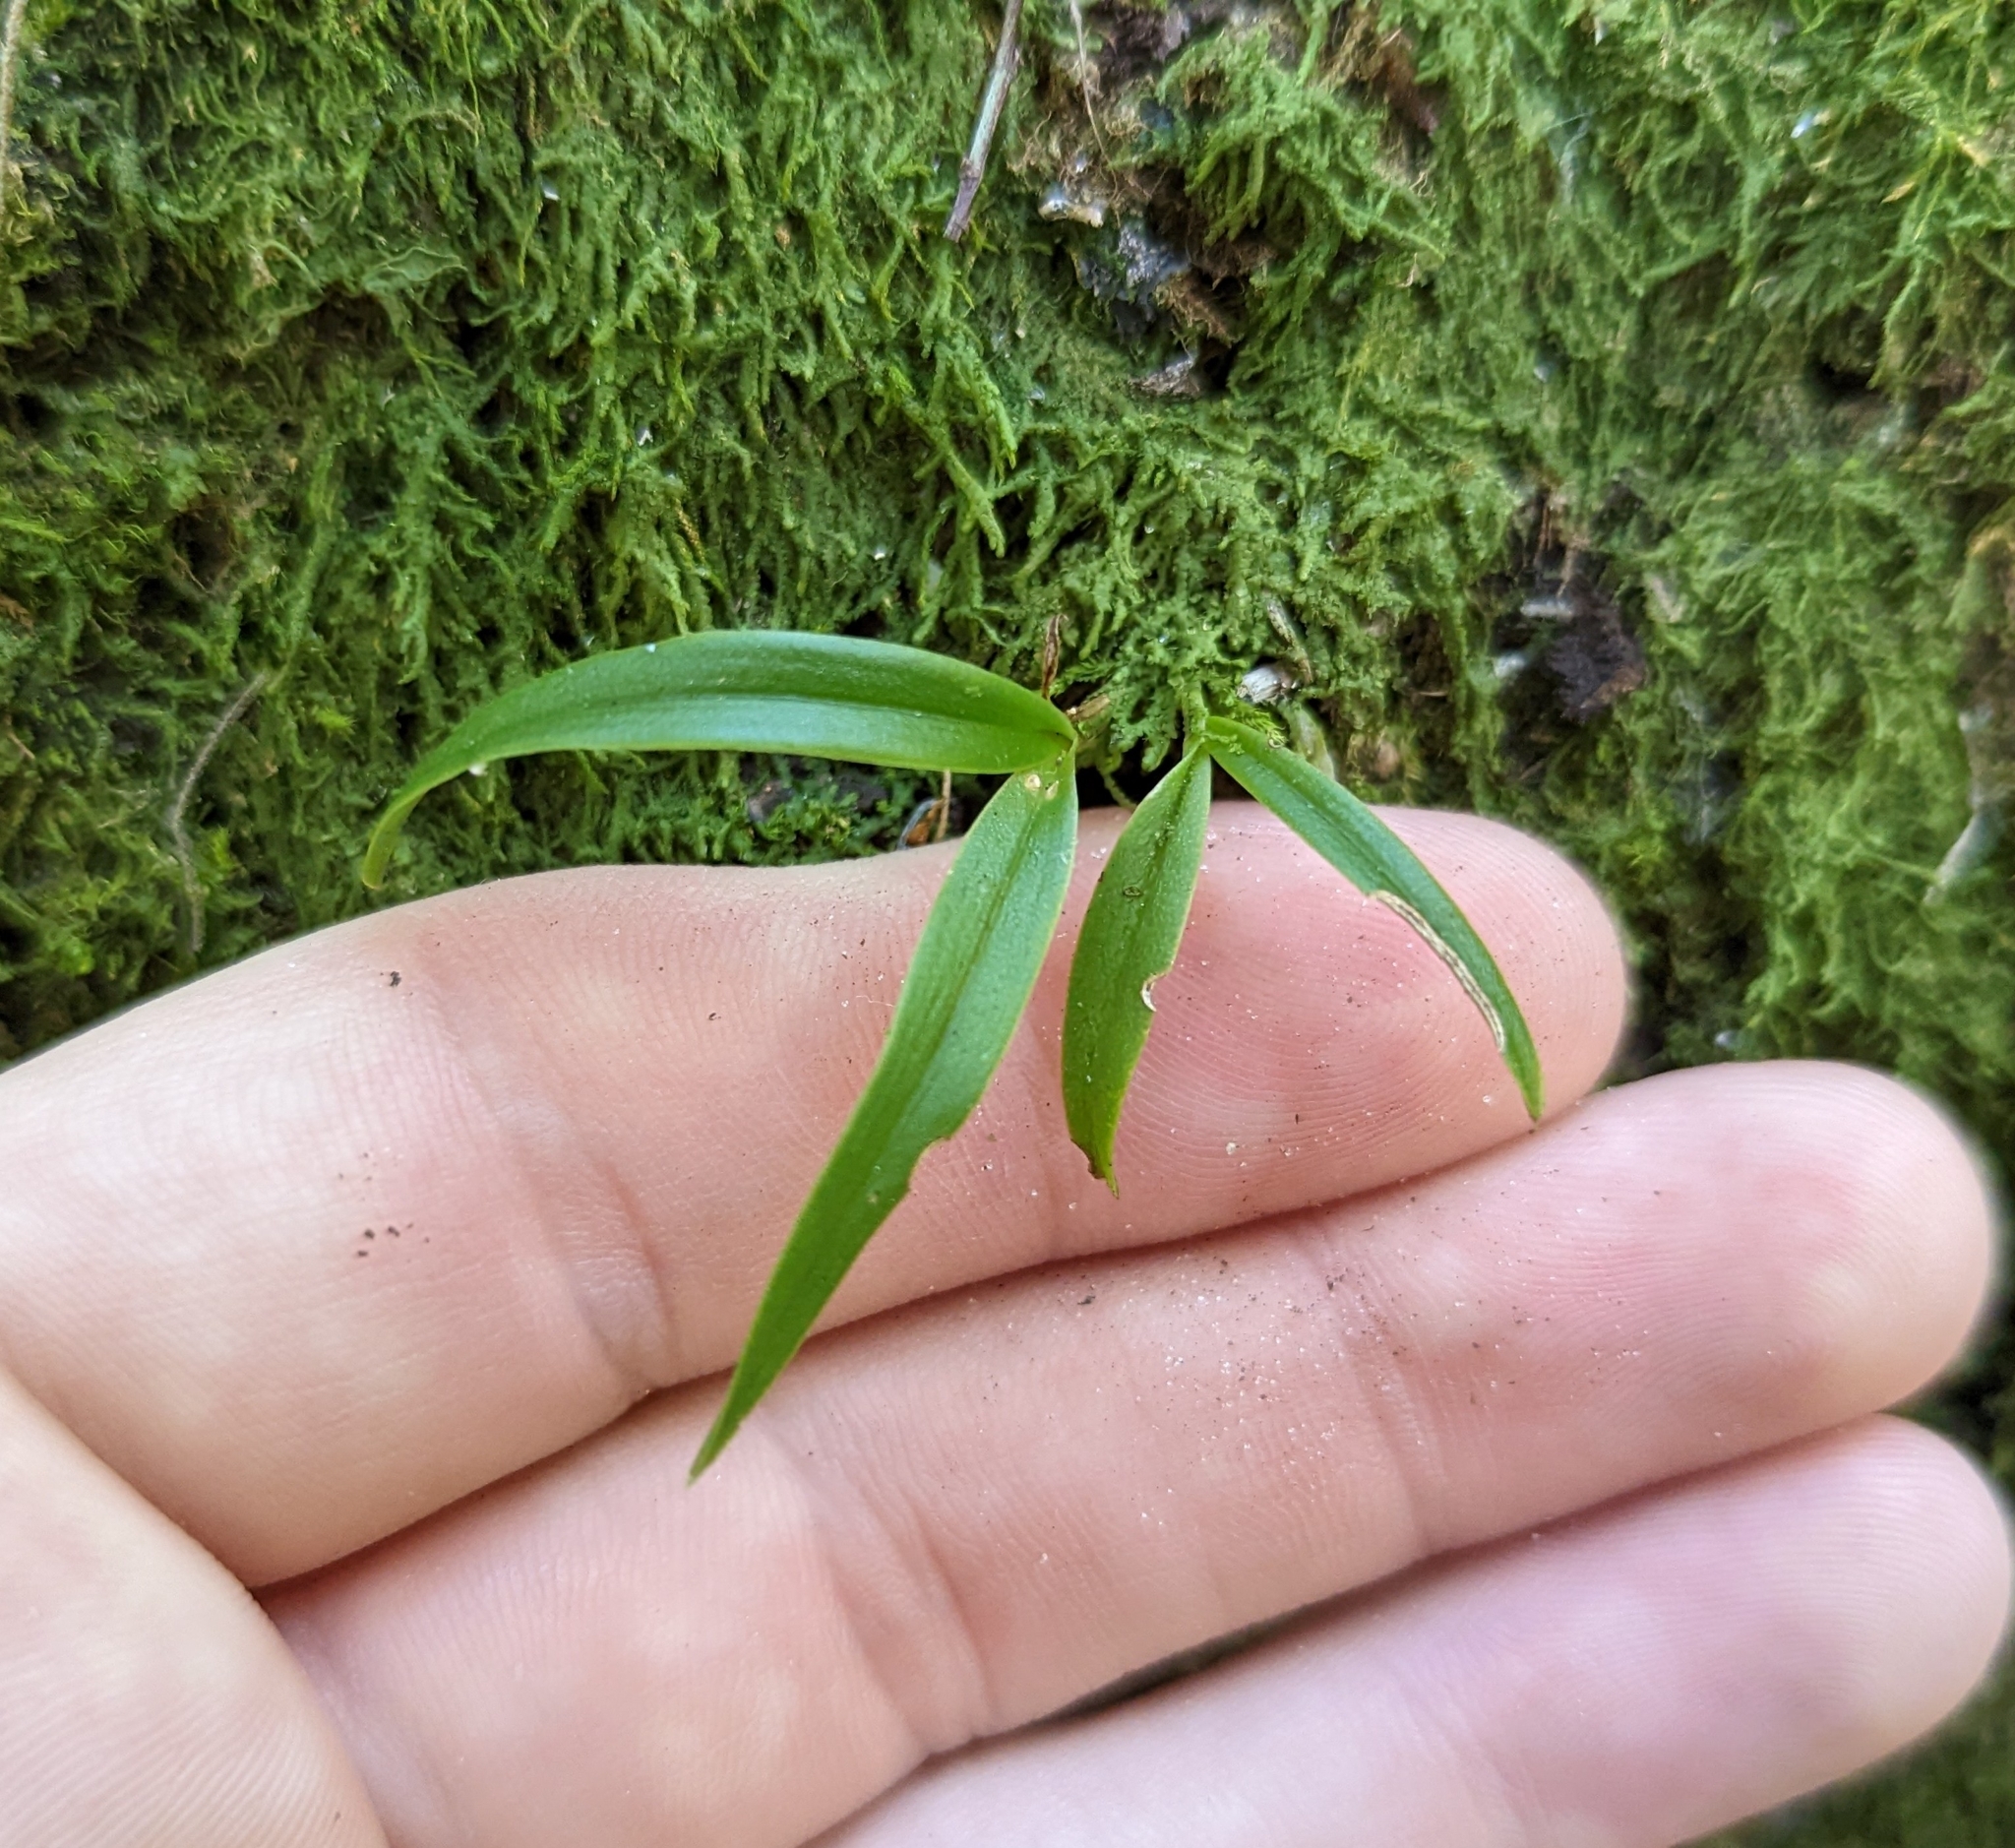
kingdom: Plantae
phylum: Tracheophyta
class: Liliopsida
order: Asparagales
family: Orchidaceae
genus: Epidendrum
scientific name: Epidendrum conopseum
